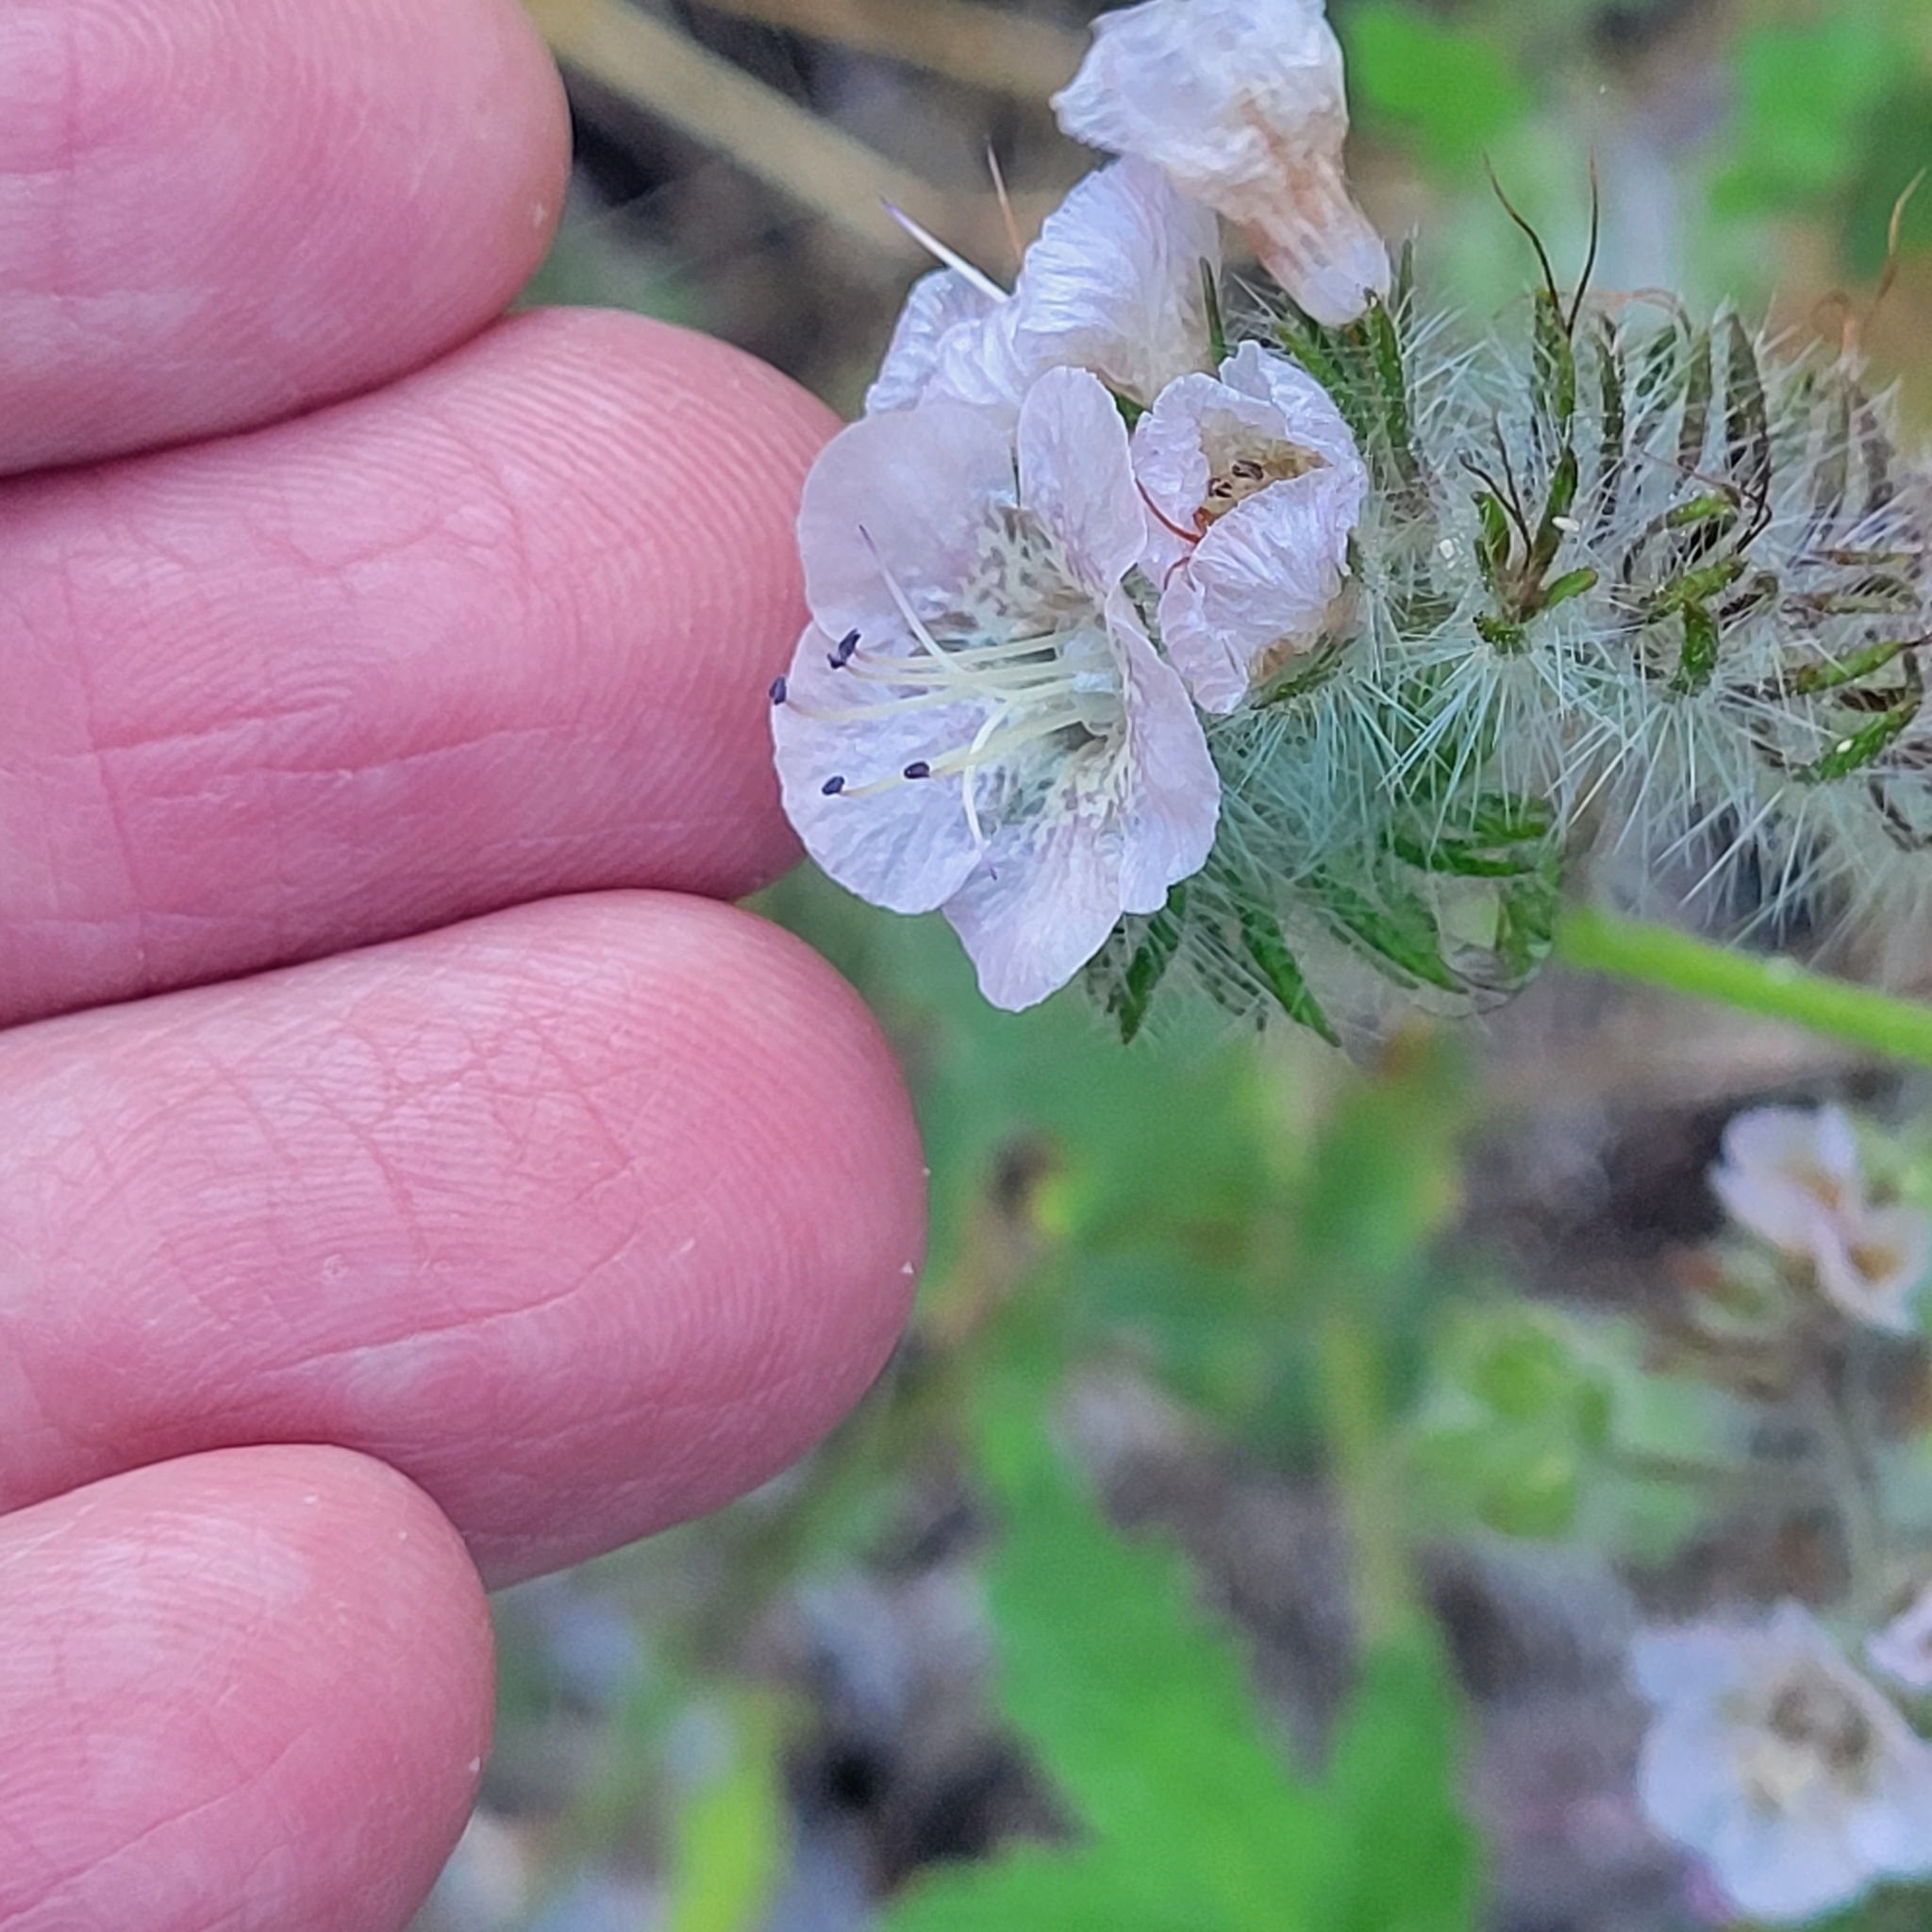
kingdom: Plantae
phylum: Tracheophyta
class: Magnoliopsida
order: Boraginales
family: Hydrophyllaceae
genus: Phacelia
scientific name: Phacelia cicutaria
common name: Caterpillar phacelia
